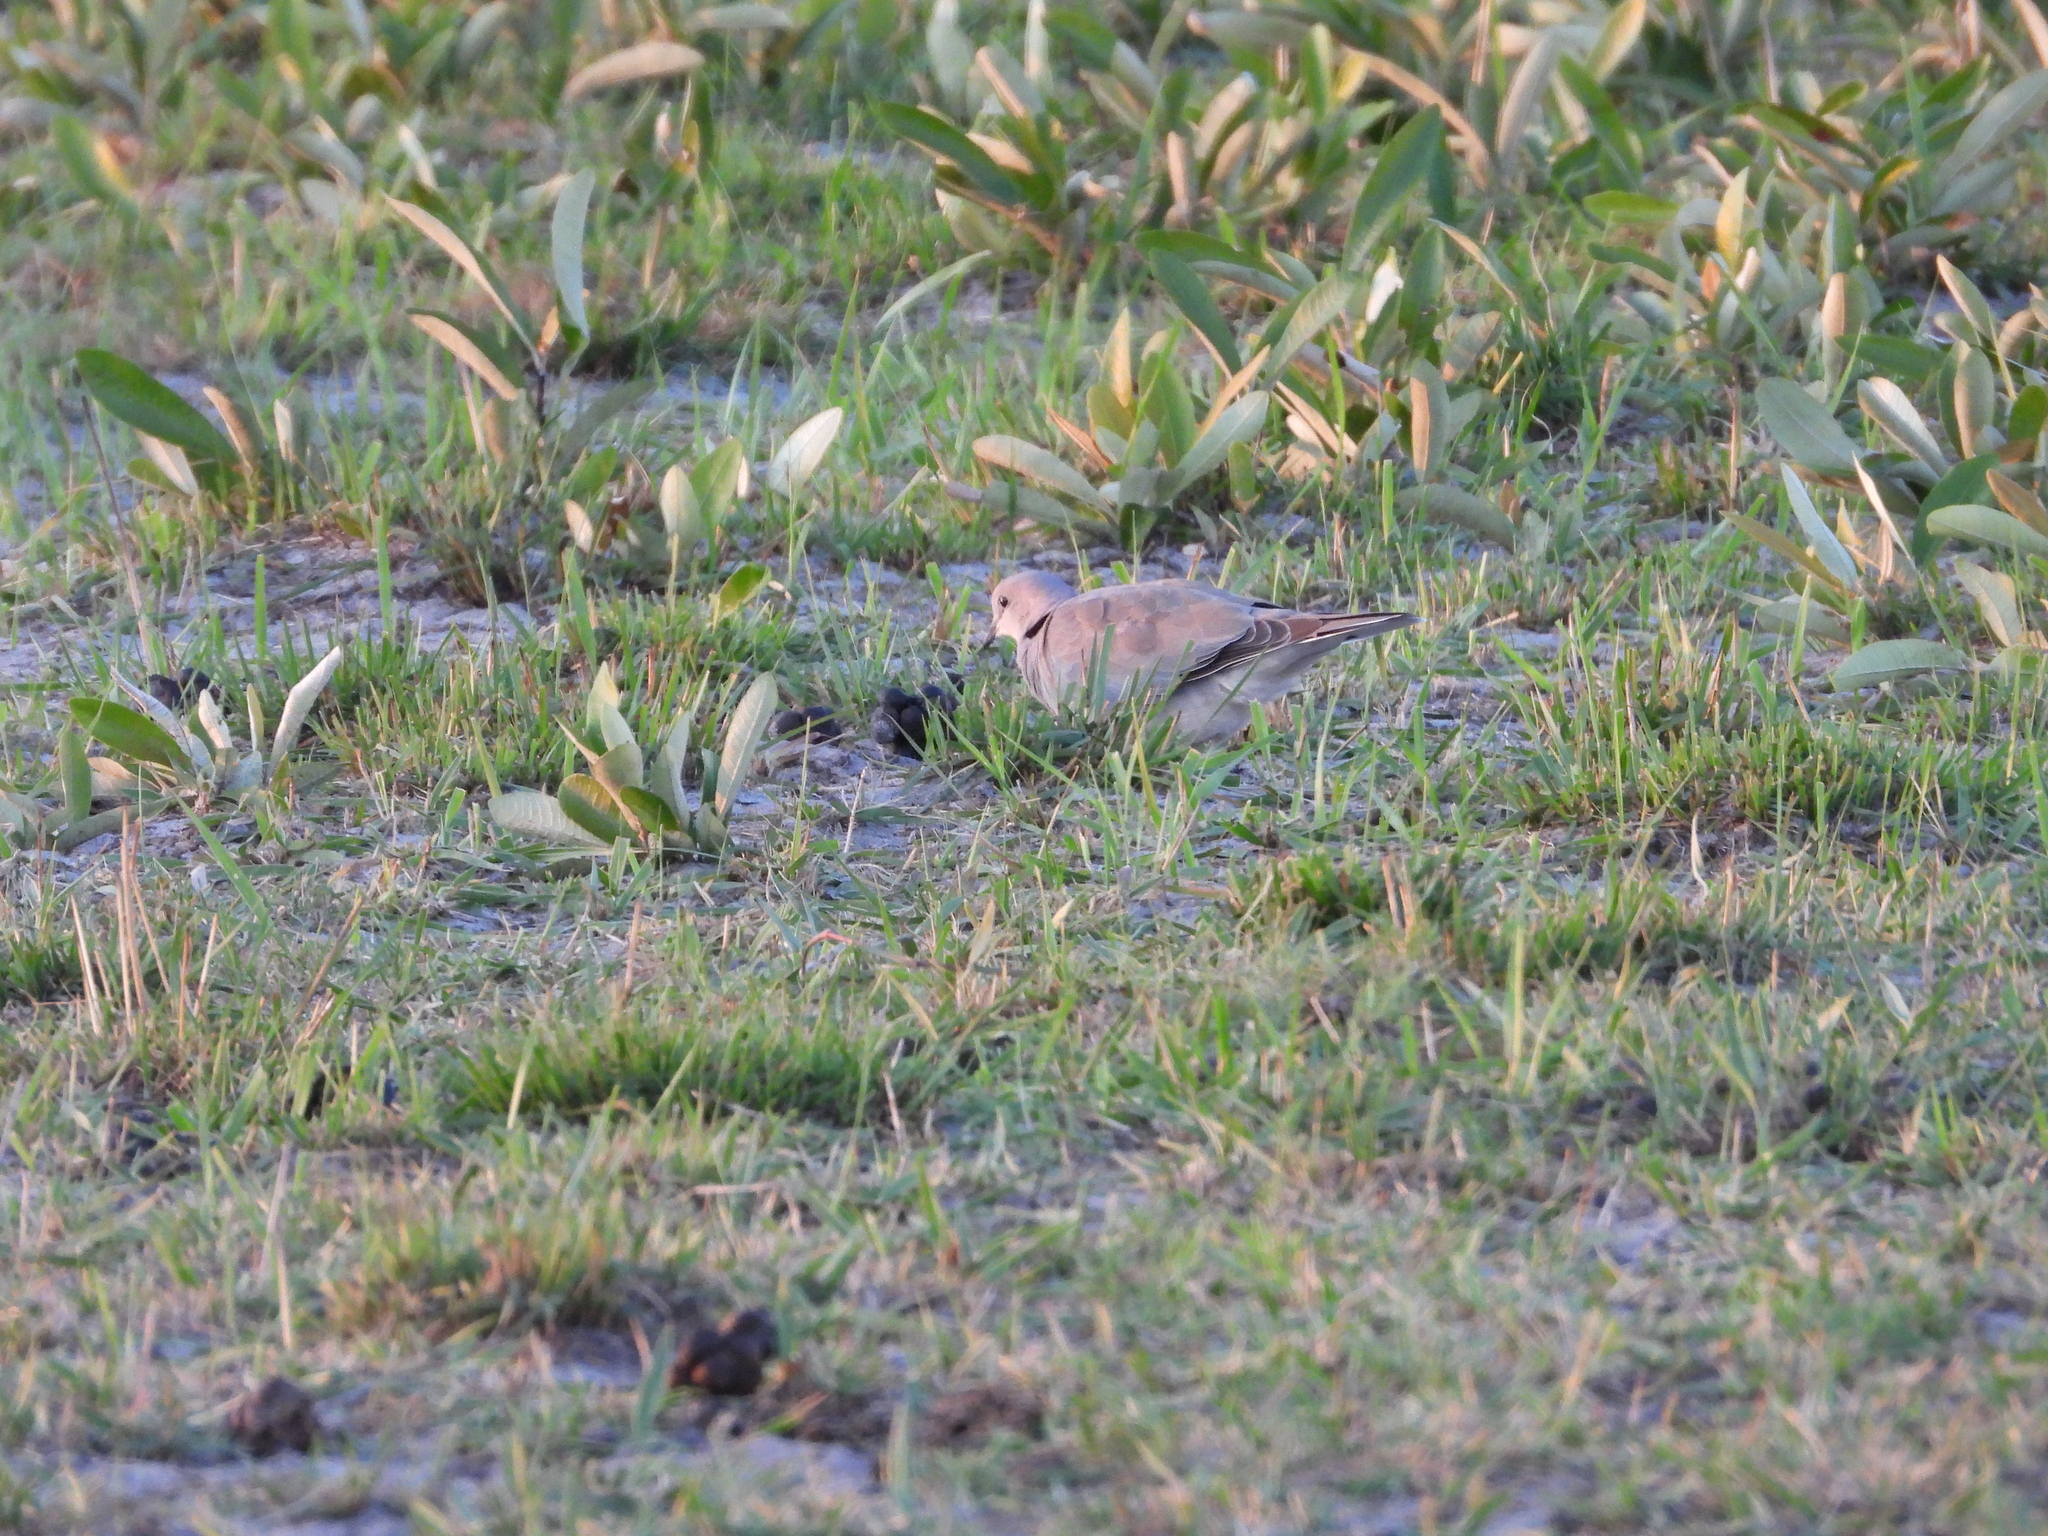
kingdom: Animalia
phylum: Chordata
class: Aves
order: Columbiformes
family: Columbidae
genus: Streptopelia
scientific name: Streptopelia capicola
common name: Ring-necked dove
